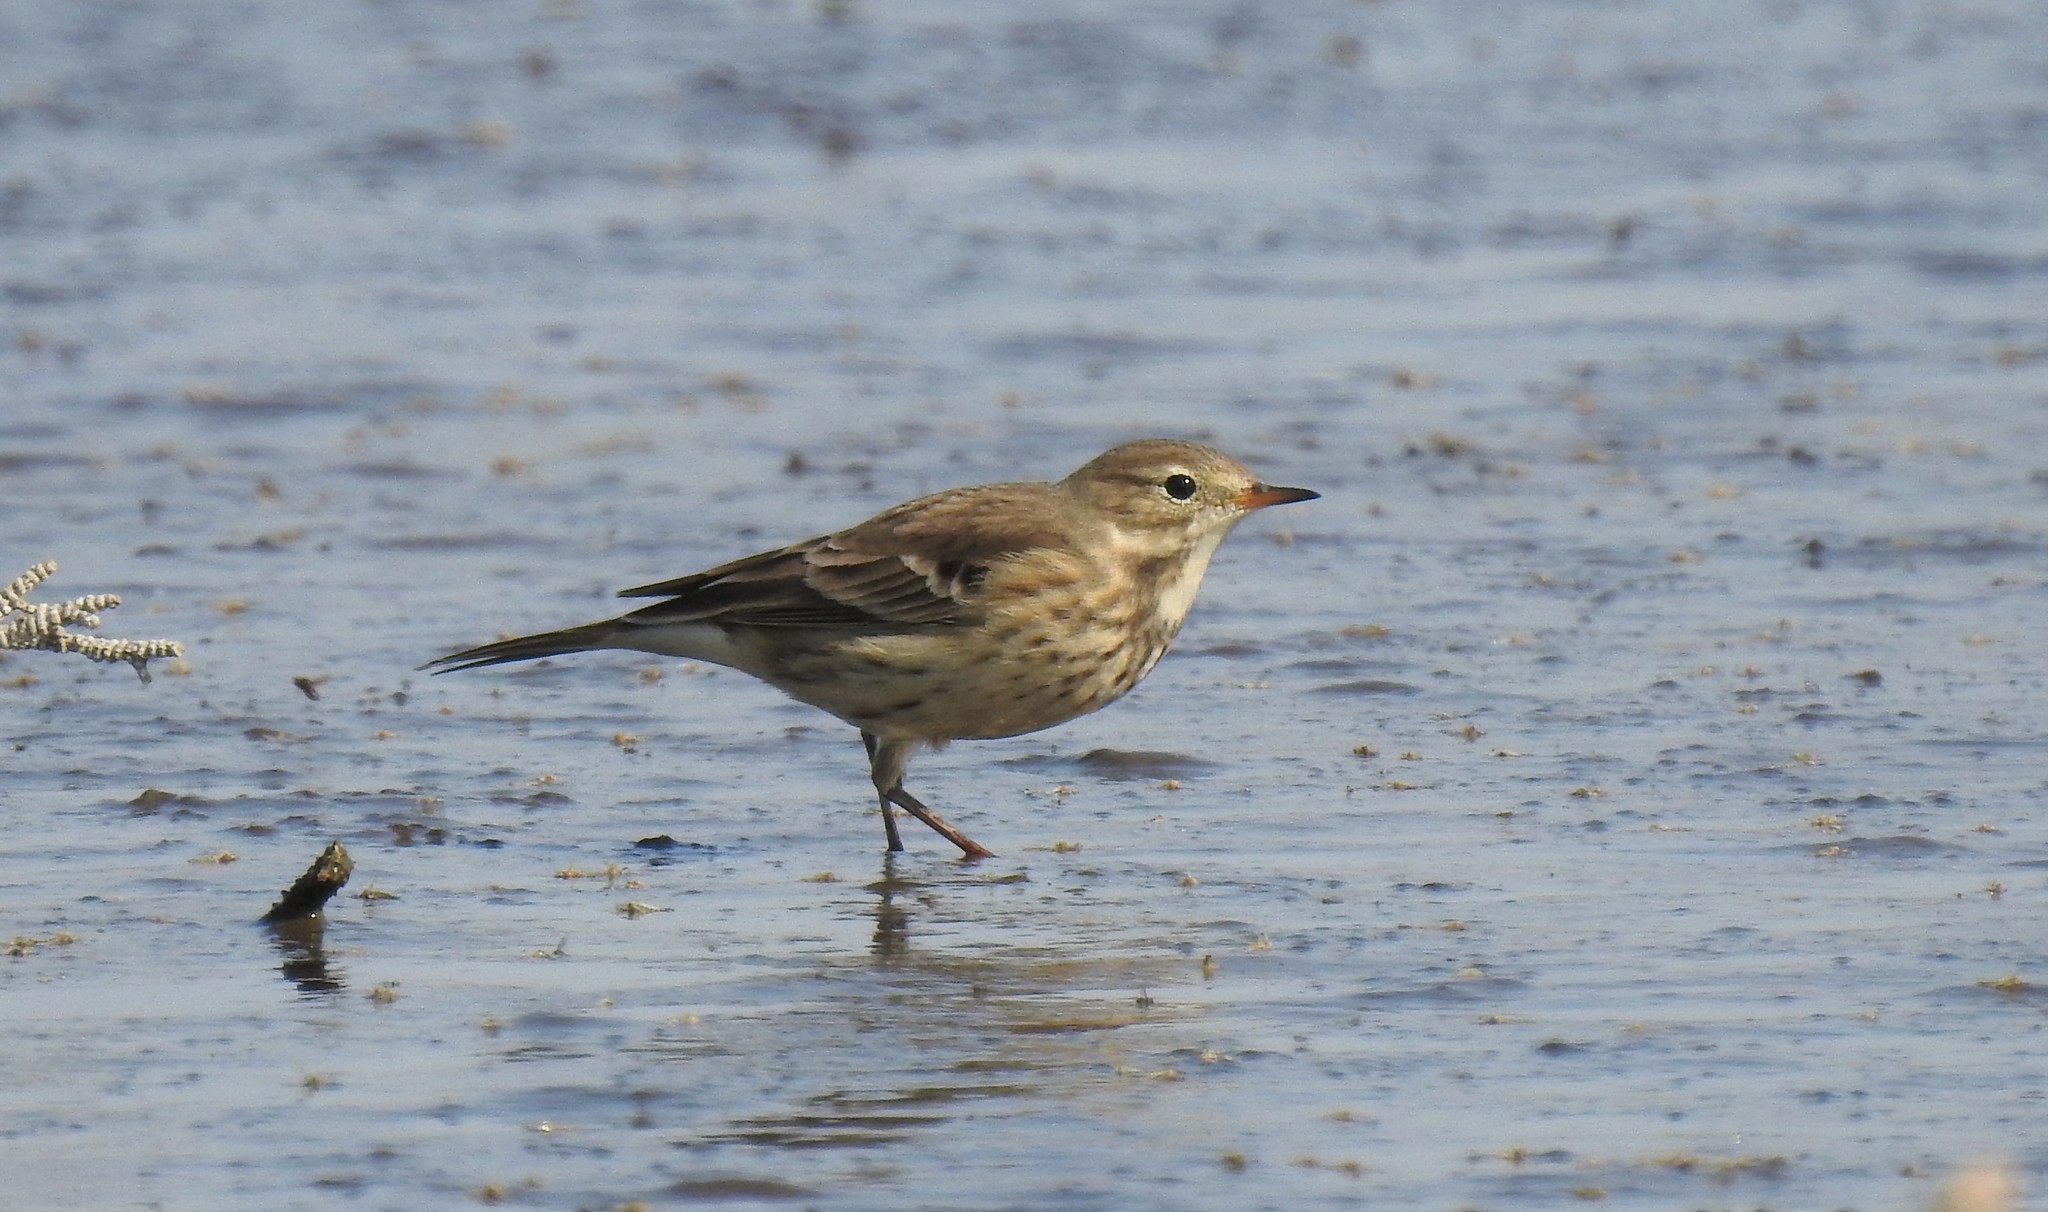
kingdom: Animalia
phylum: Chordata
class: Aves
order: Passeriformes
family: Motacillidae
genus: Anthus
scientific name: Anthus rubescens
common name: Buff-bellied pipit
